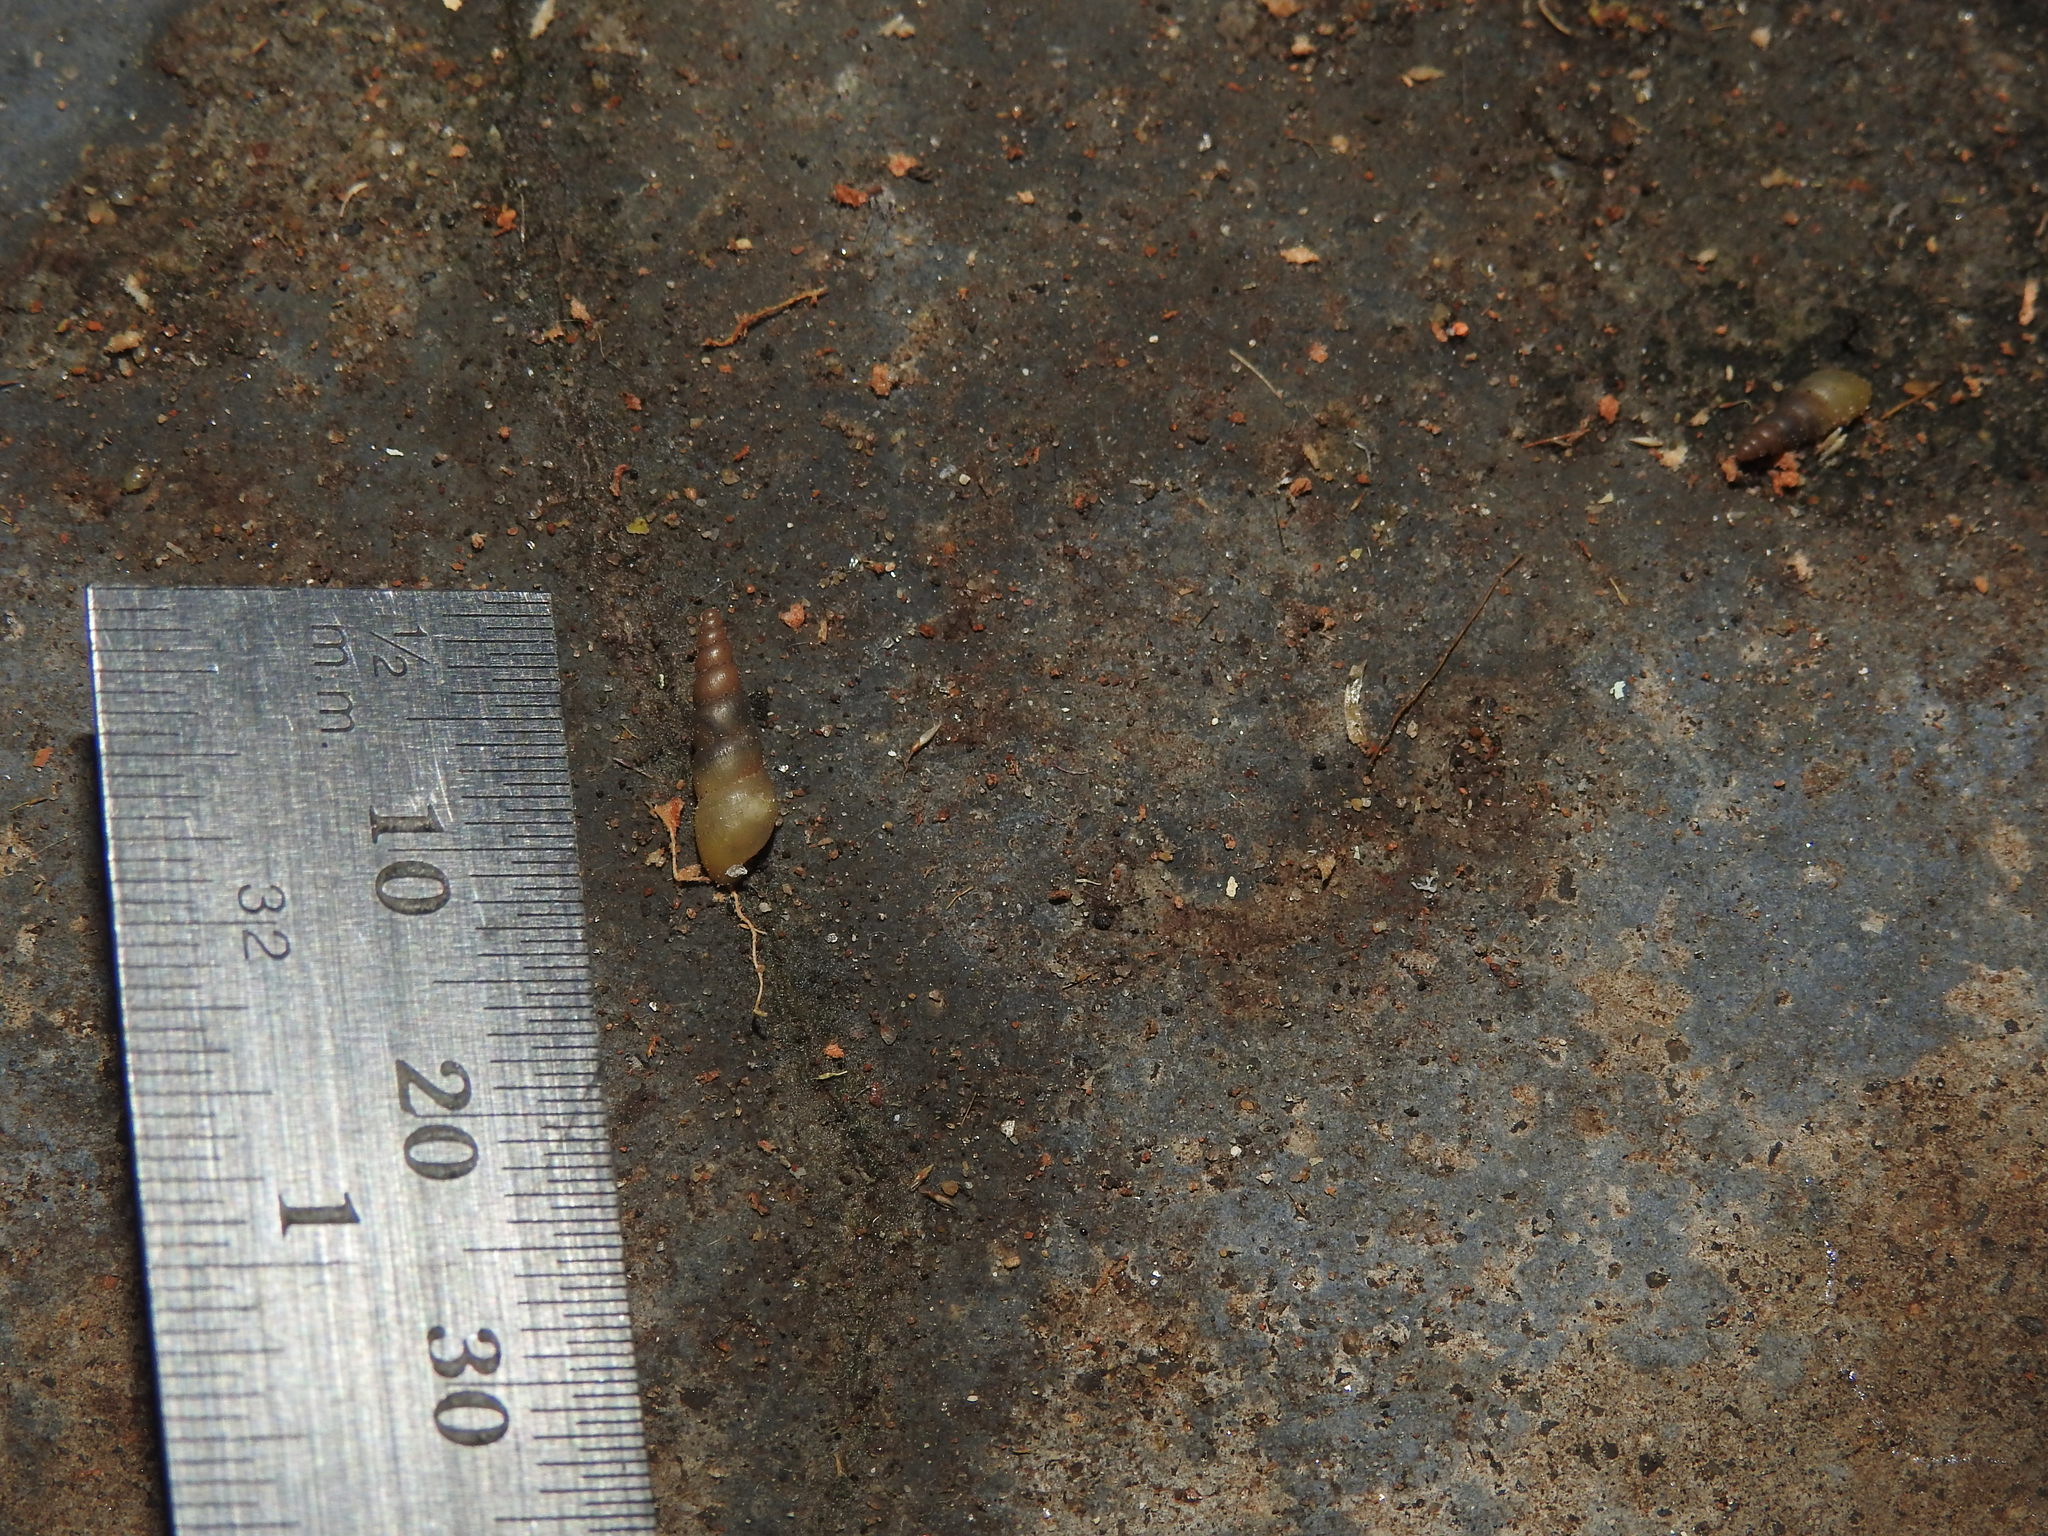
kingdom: Animalia
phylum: Mollusca
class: Gastropoda
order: Stylommatophora
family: Achatinidae
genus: Allopeas
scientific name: Allopeas gracile
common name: Graceful awlsnail
